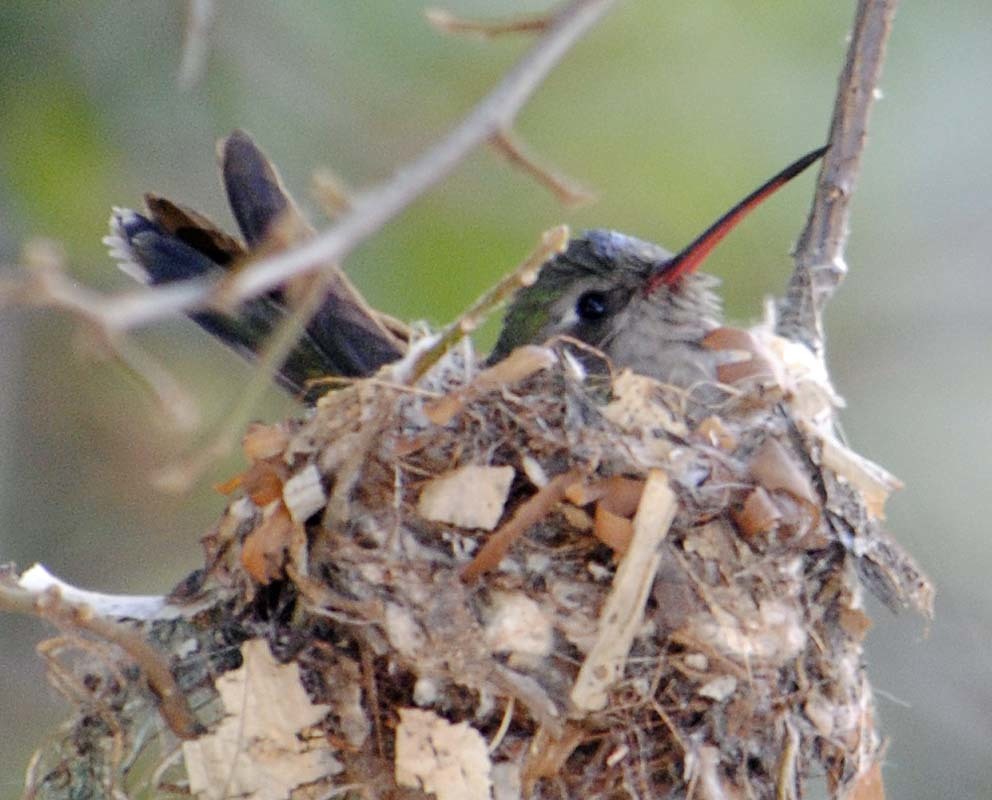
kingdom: Animalia
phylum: Chordata
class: Aves
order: Apodiformes
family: Trochilidae
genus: Cynanthus
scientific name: Cynanthus latirostris
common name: Broad-billed hummingbird
